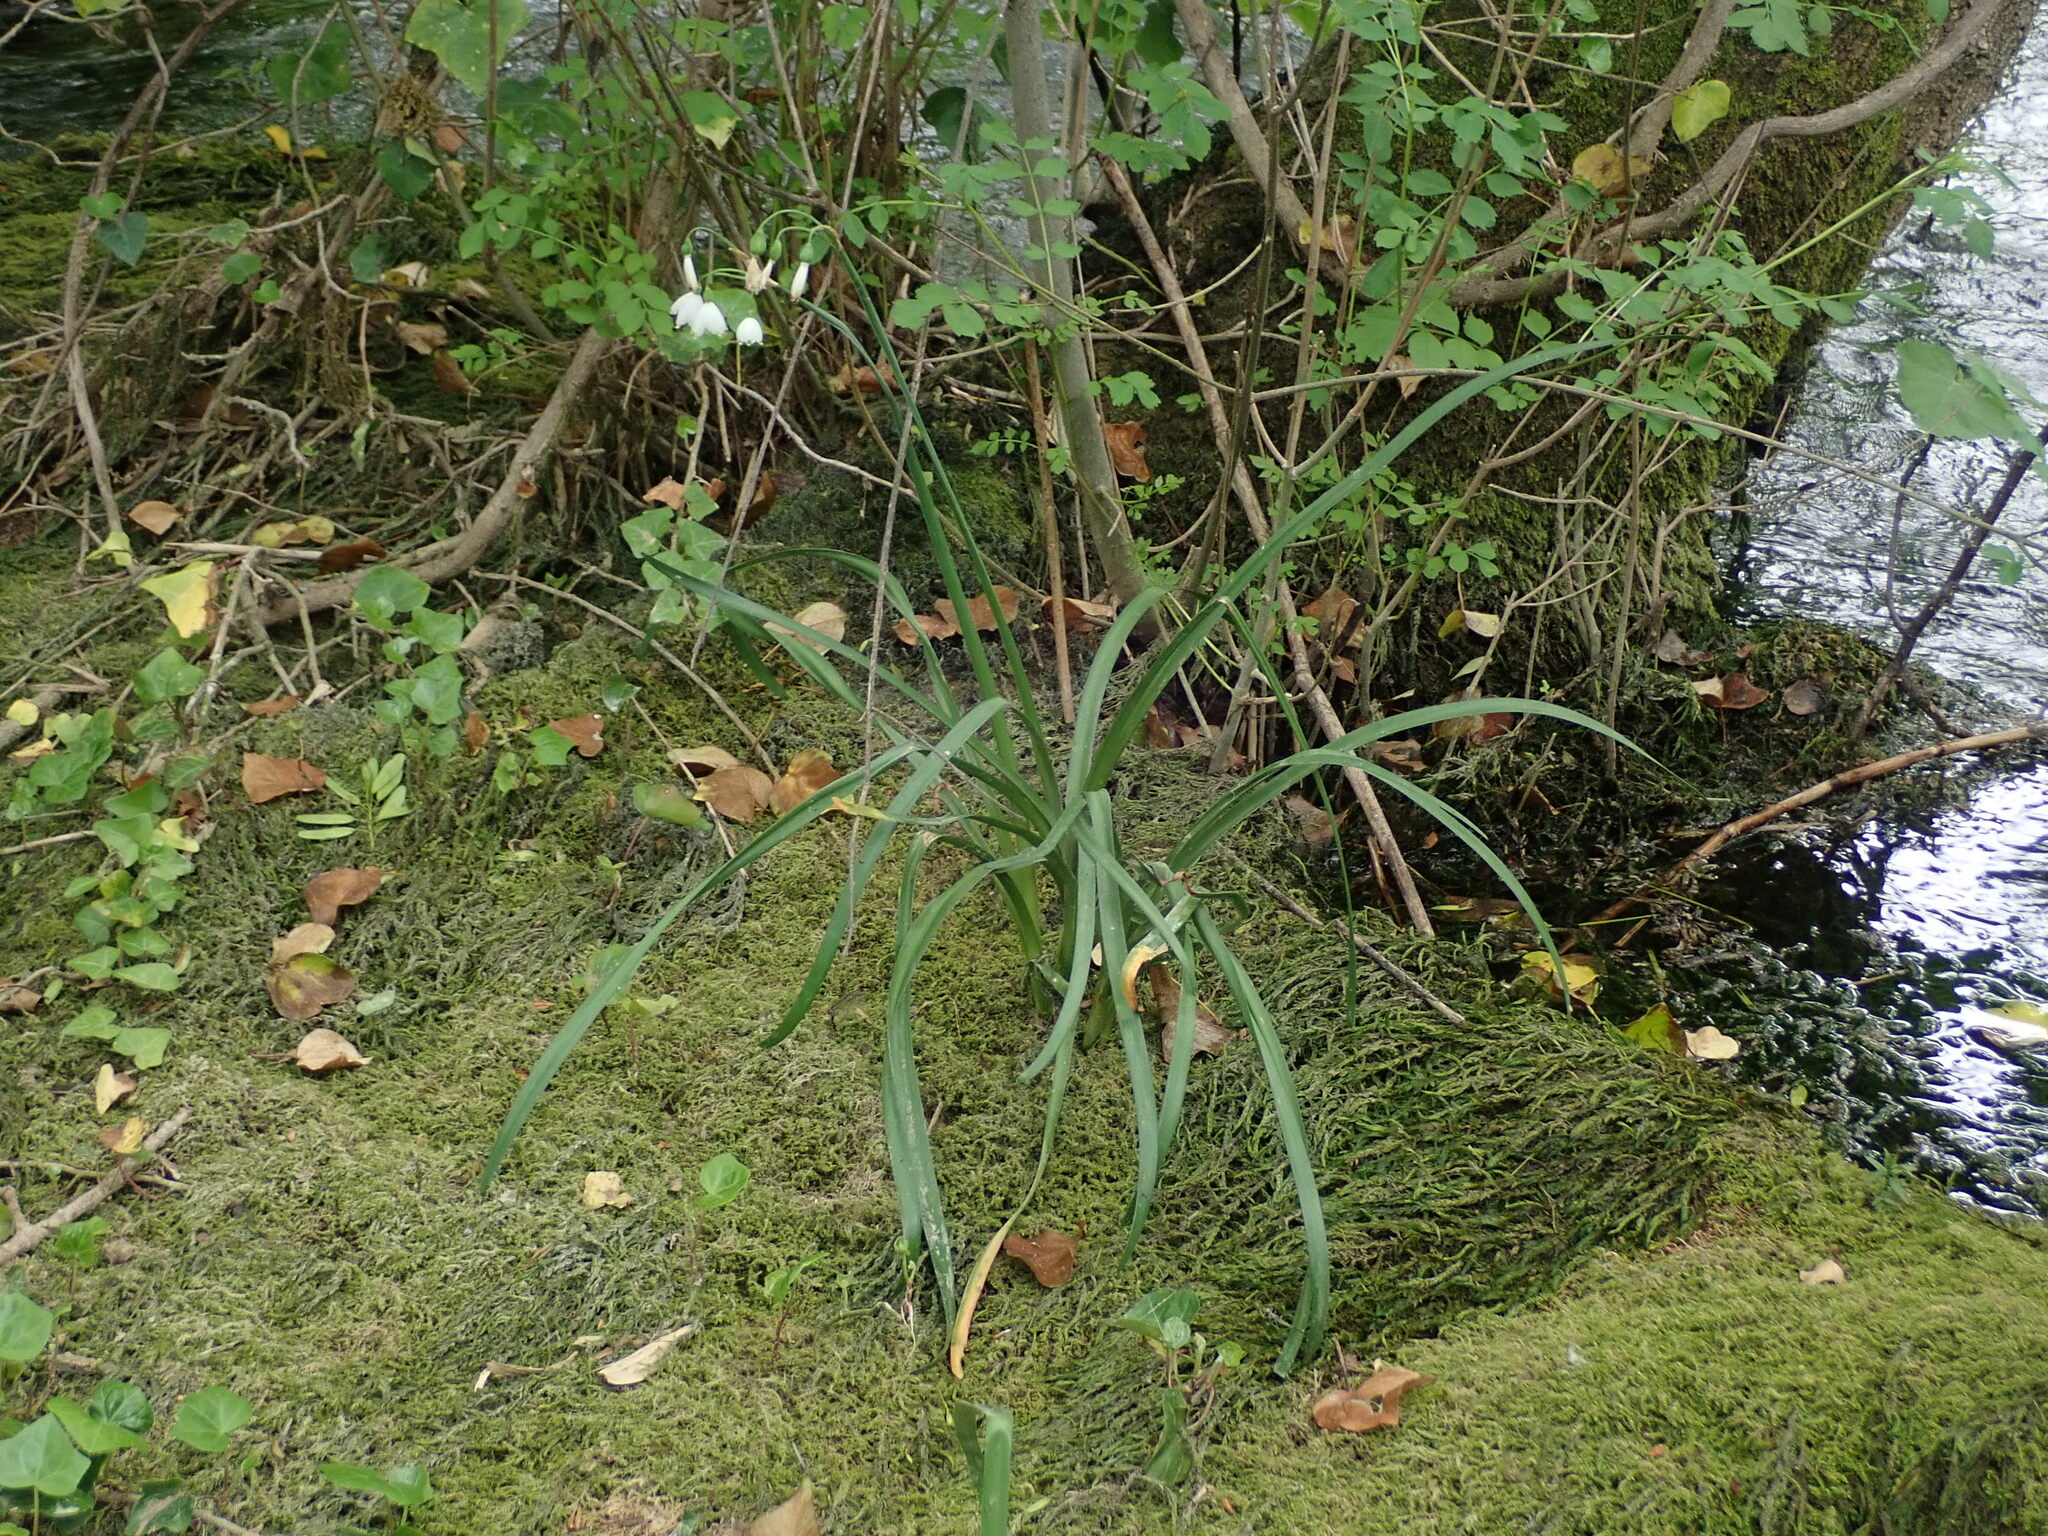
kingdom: Plantae
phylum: Tracheophyta
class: Liliopsida
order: Asparagales
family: Amaryllidaceae
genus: Leucojum
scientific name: Leucojum aestivum
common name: Summer snowflake
